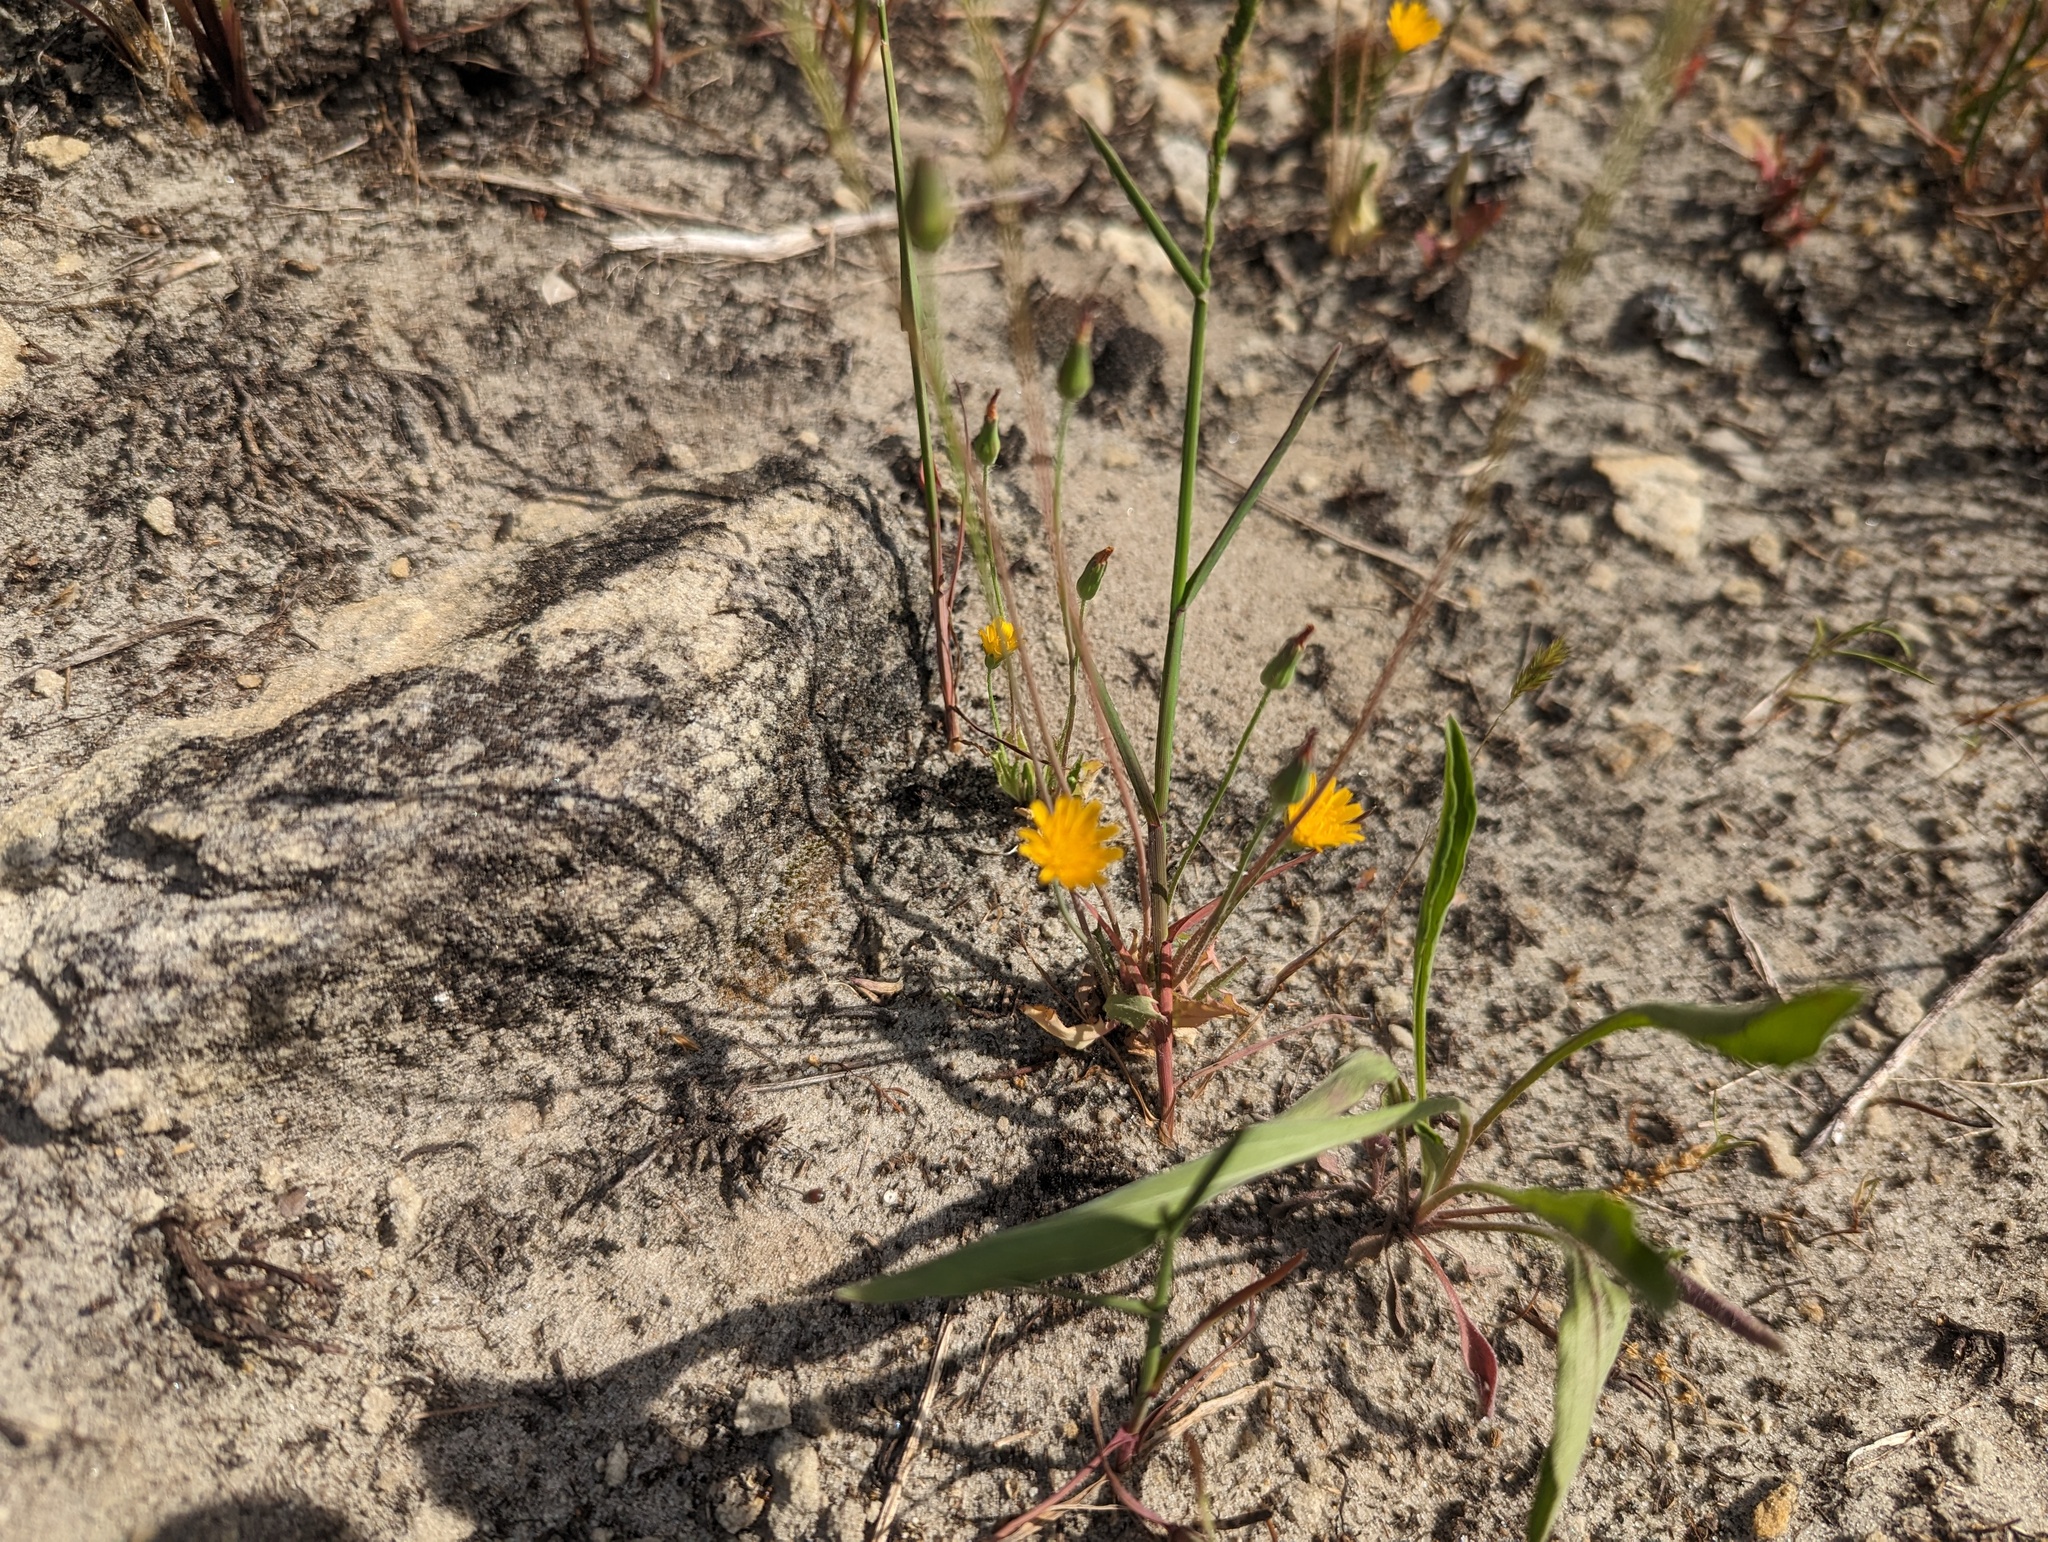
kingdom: Plantae
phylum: Tracheophyta
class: Magnoliopsida
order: Asterales
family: Asteraceae
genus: Krigia
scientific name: Krigia virginica
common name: Virginia dwarf-dandelion
